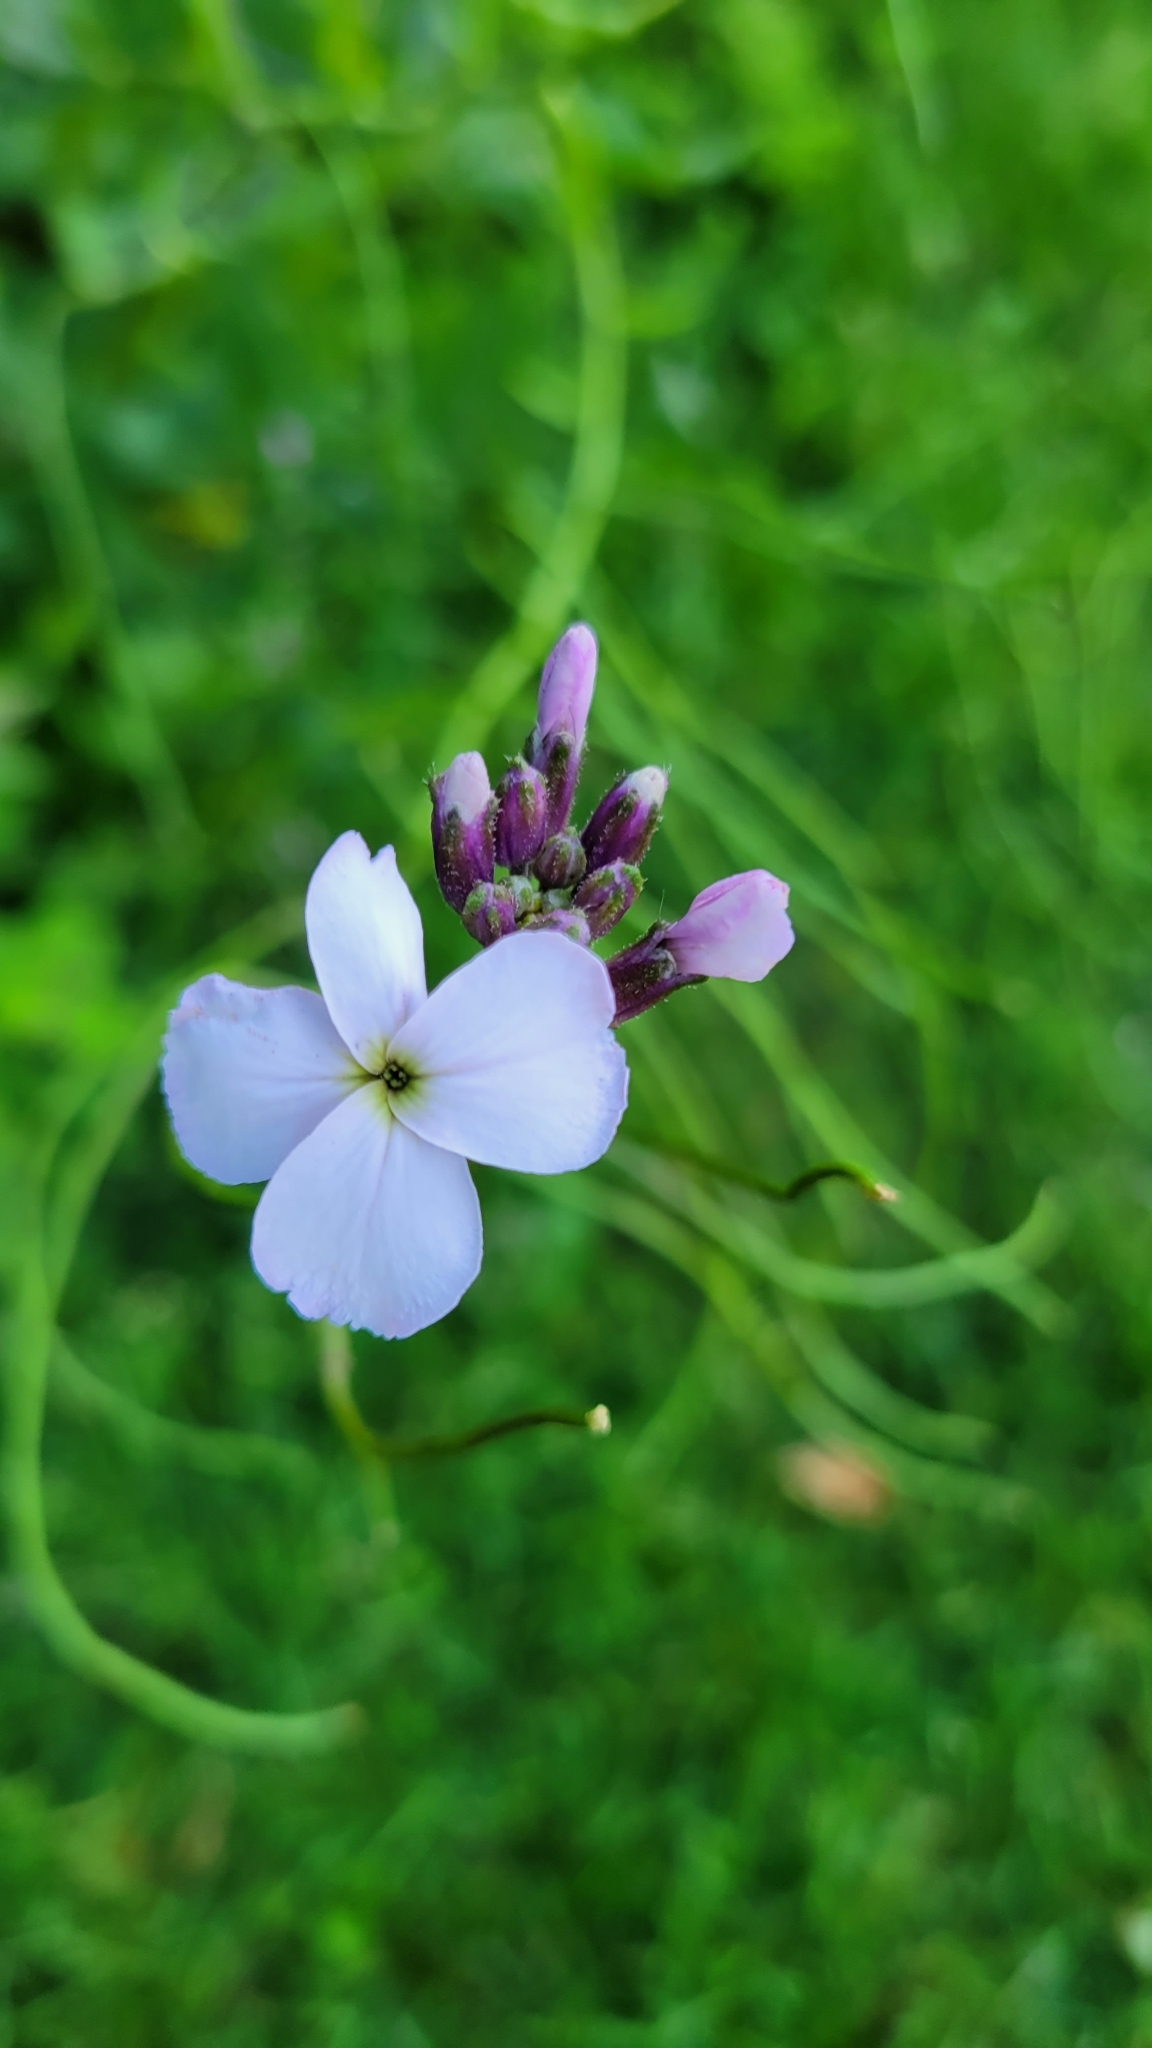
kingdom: Plantae
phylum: Tracheophyta
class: Magnoliopsida
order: Brassicales
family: Brassicaceae
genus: Hesperis
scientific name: Hesperis matronalis
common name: Dame's-violet
